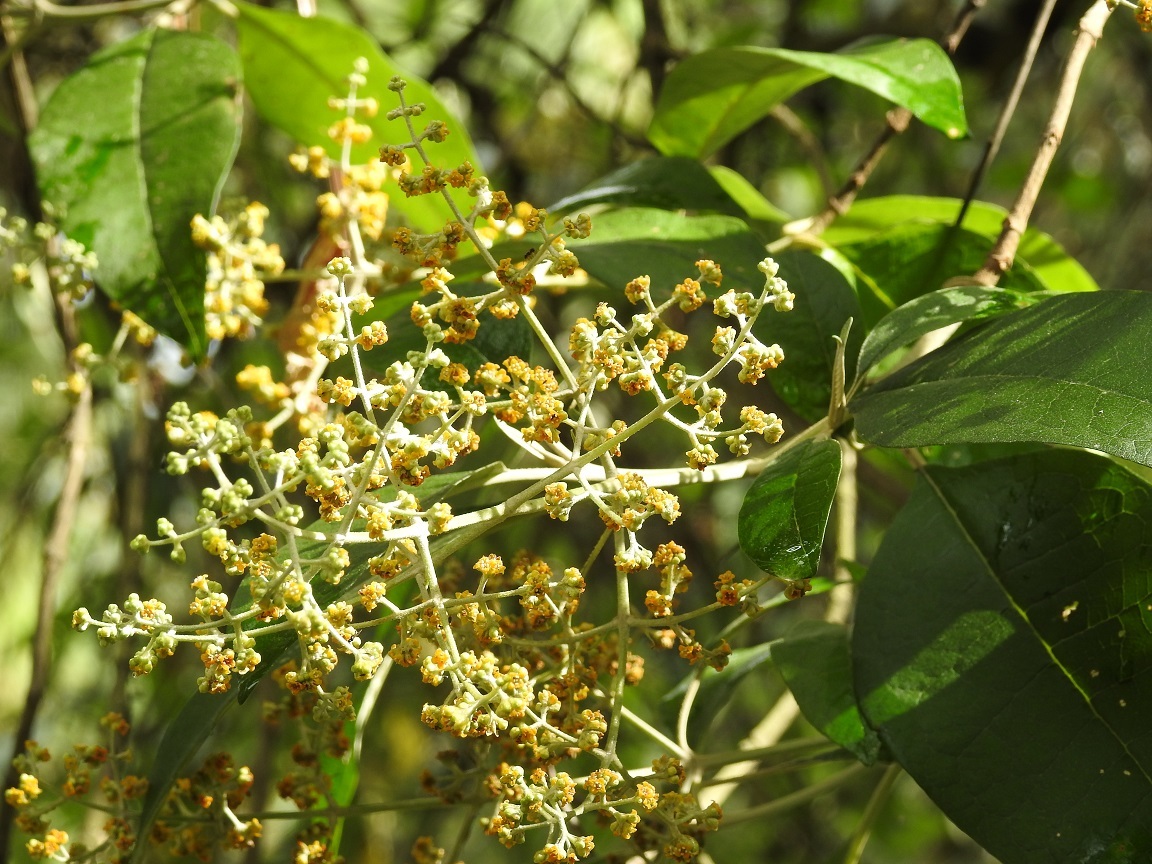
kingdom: Plantae
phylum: Tracheophyta
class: Magnoliopsida
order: Lamiales
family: Scrophulariaceae
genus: Buddleja
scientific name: Buddleja cordata
